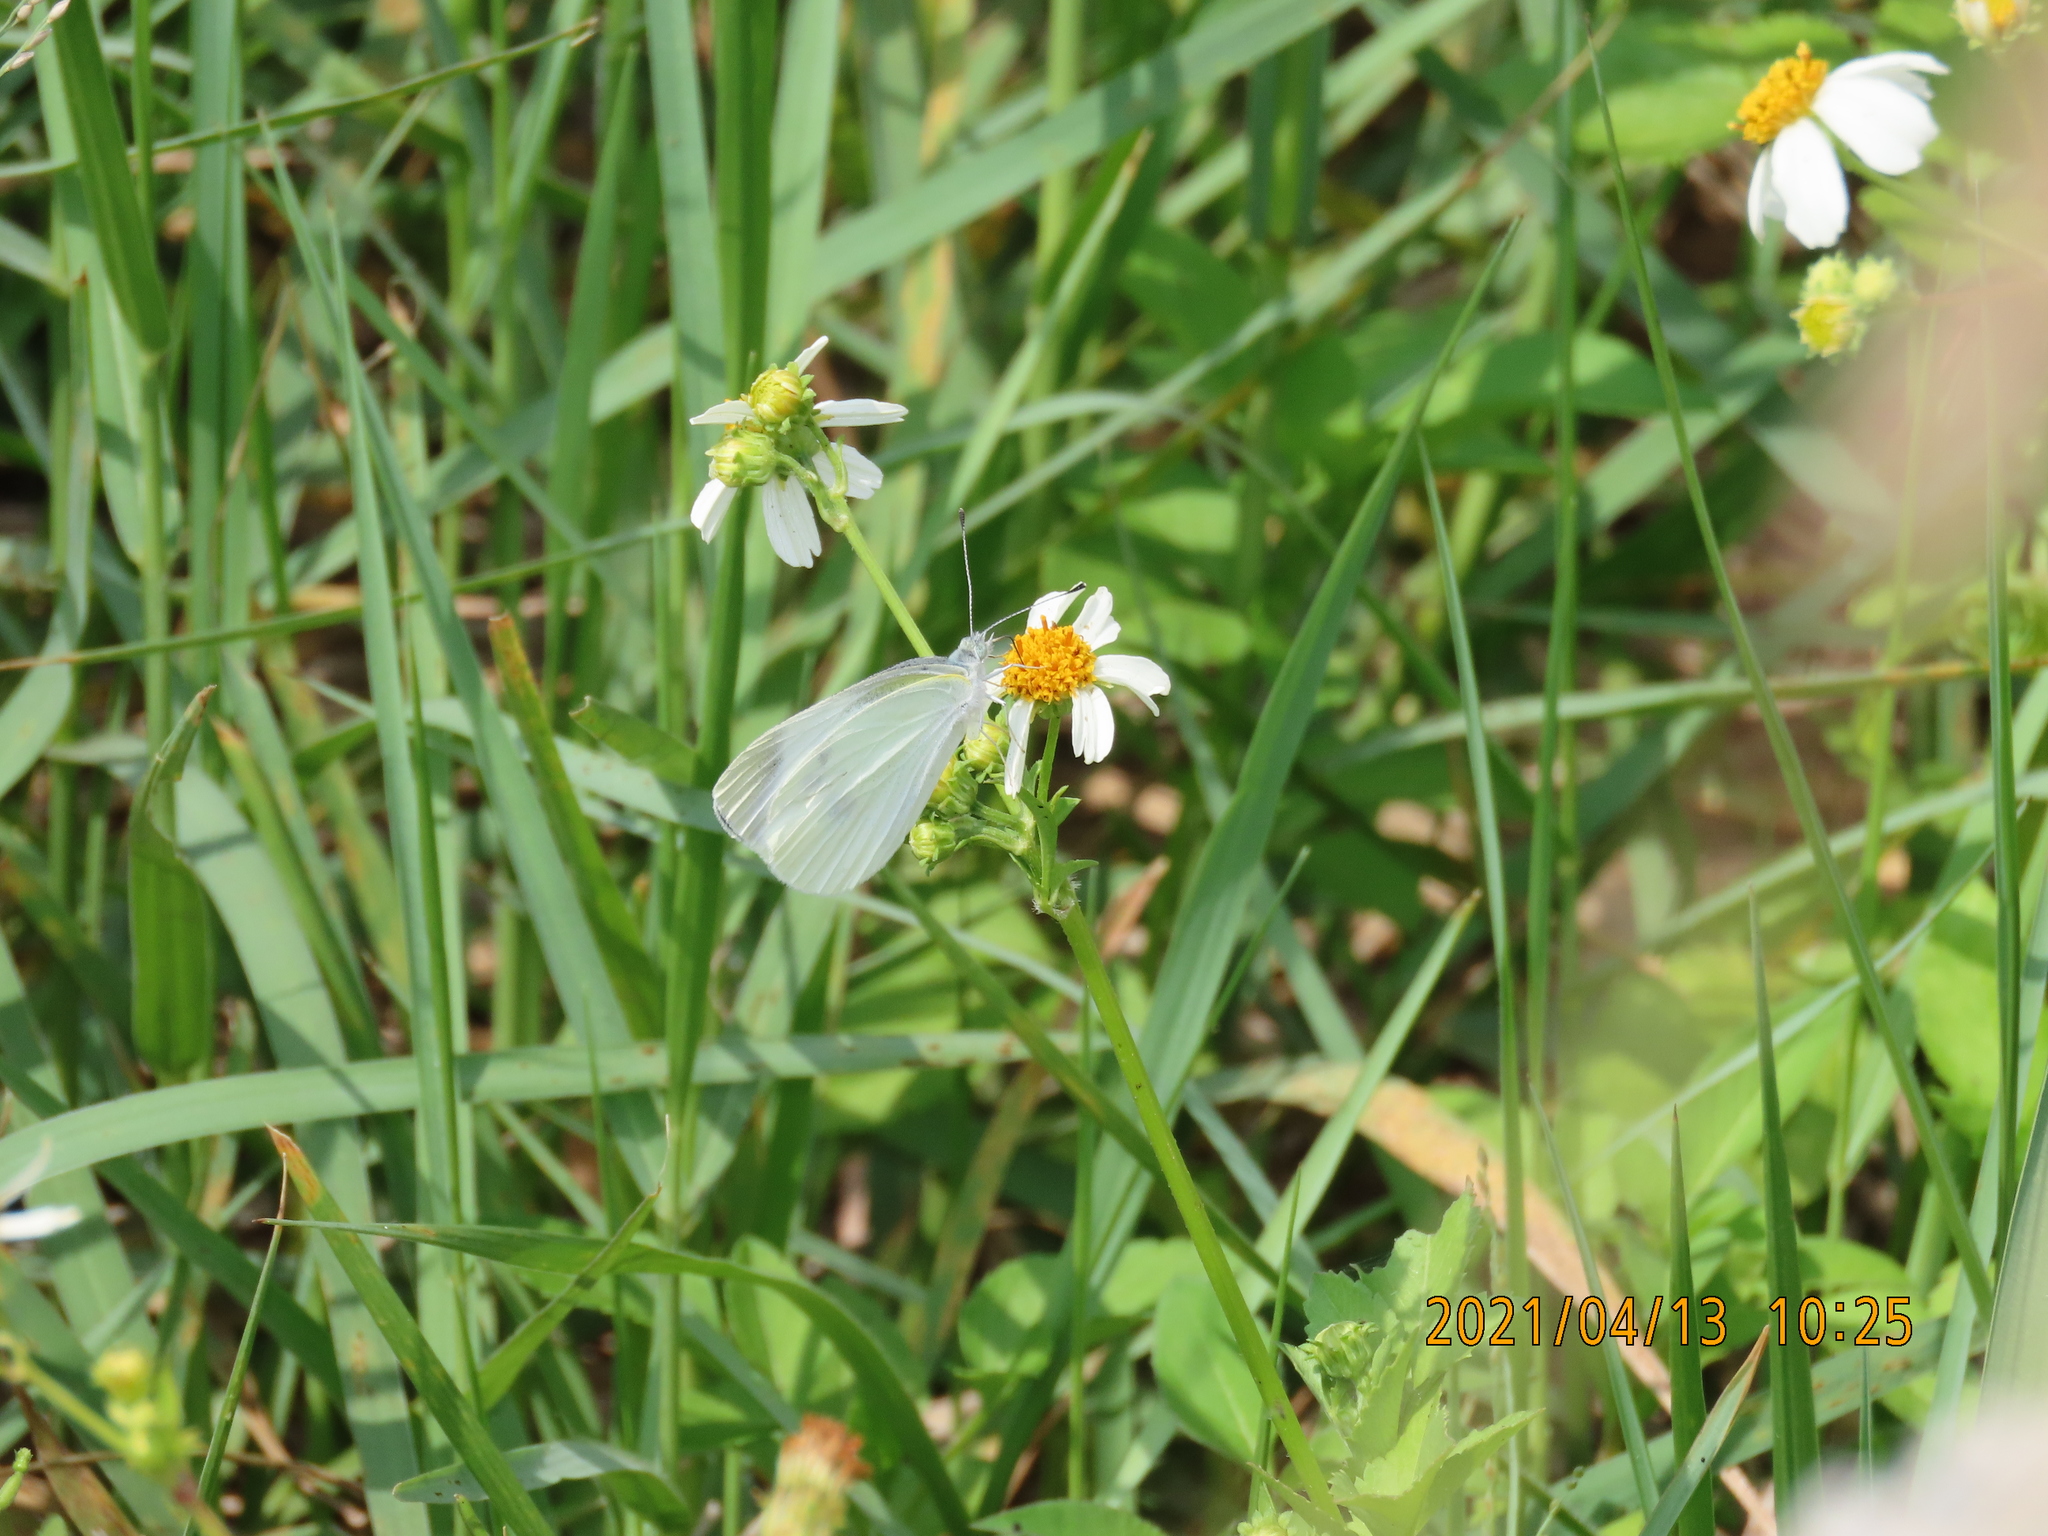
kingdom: Animalia
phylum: Arthropoda
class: Insecta
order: Lepidoptera
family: Pieridae
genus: Pieris
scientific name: Pieris rapae
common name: Small white
